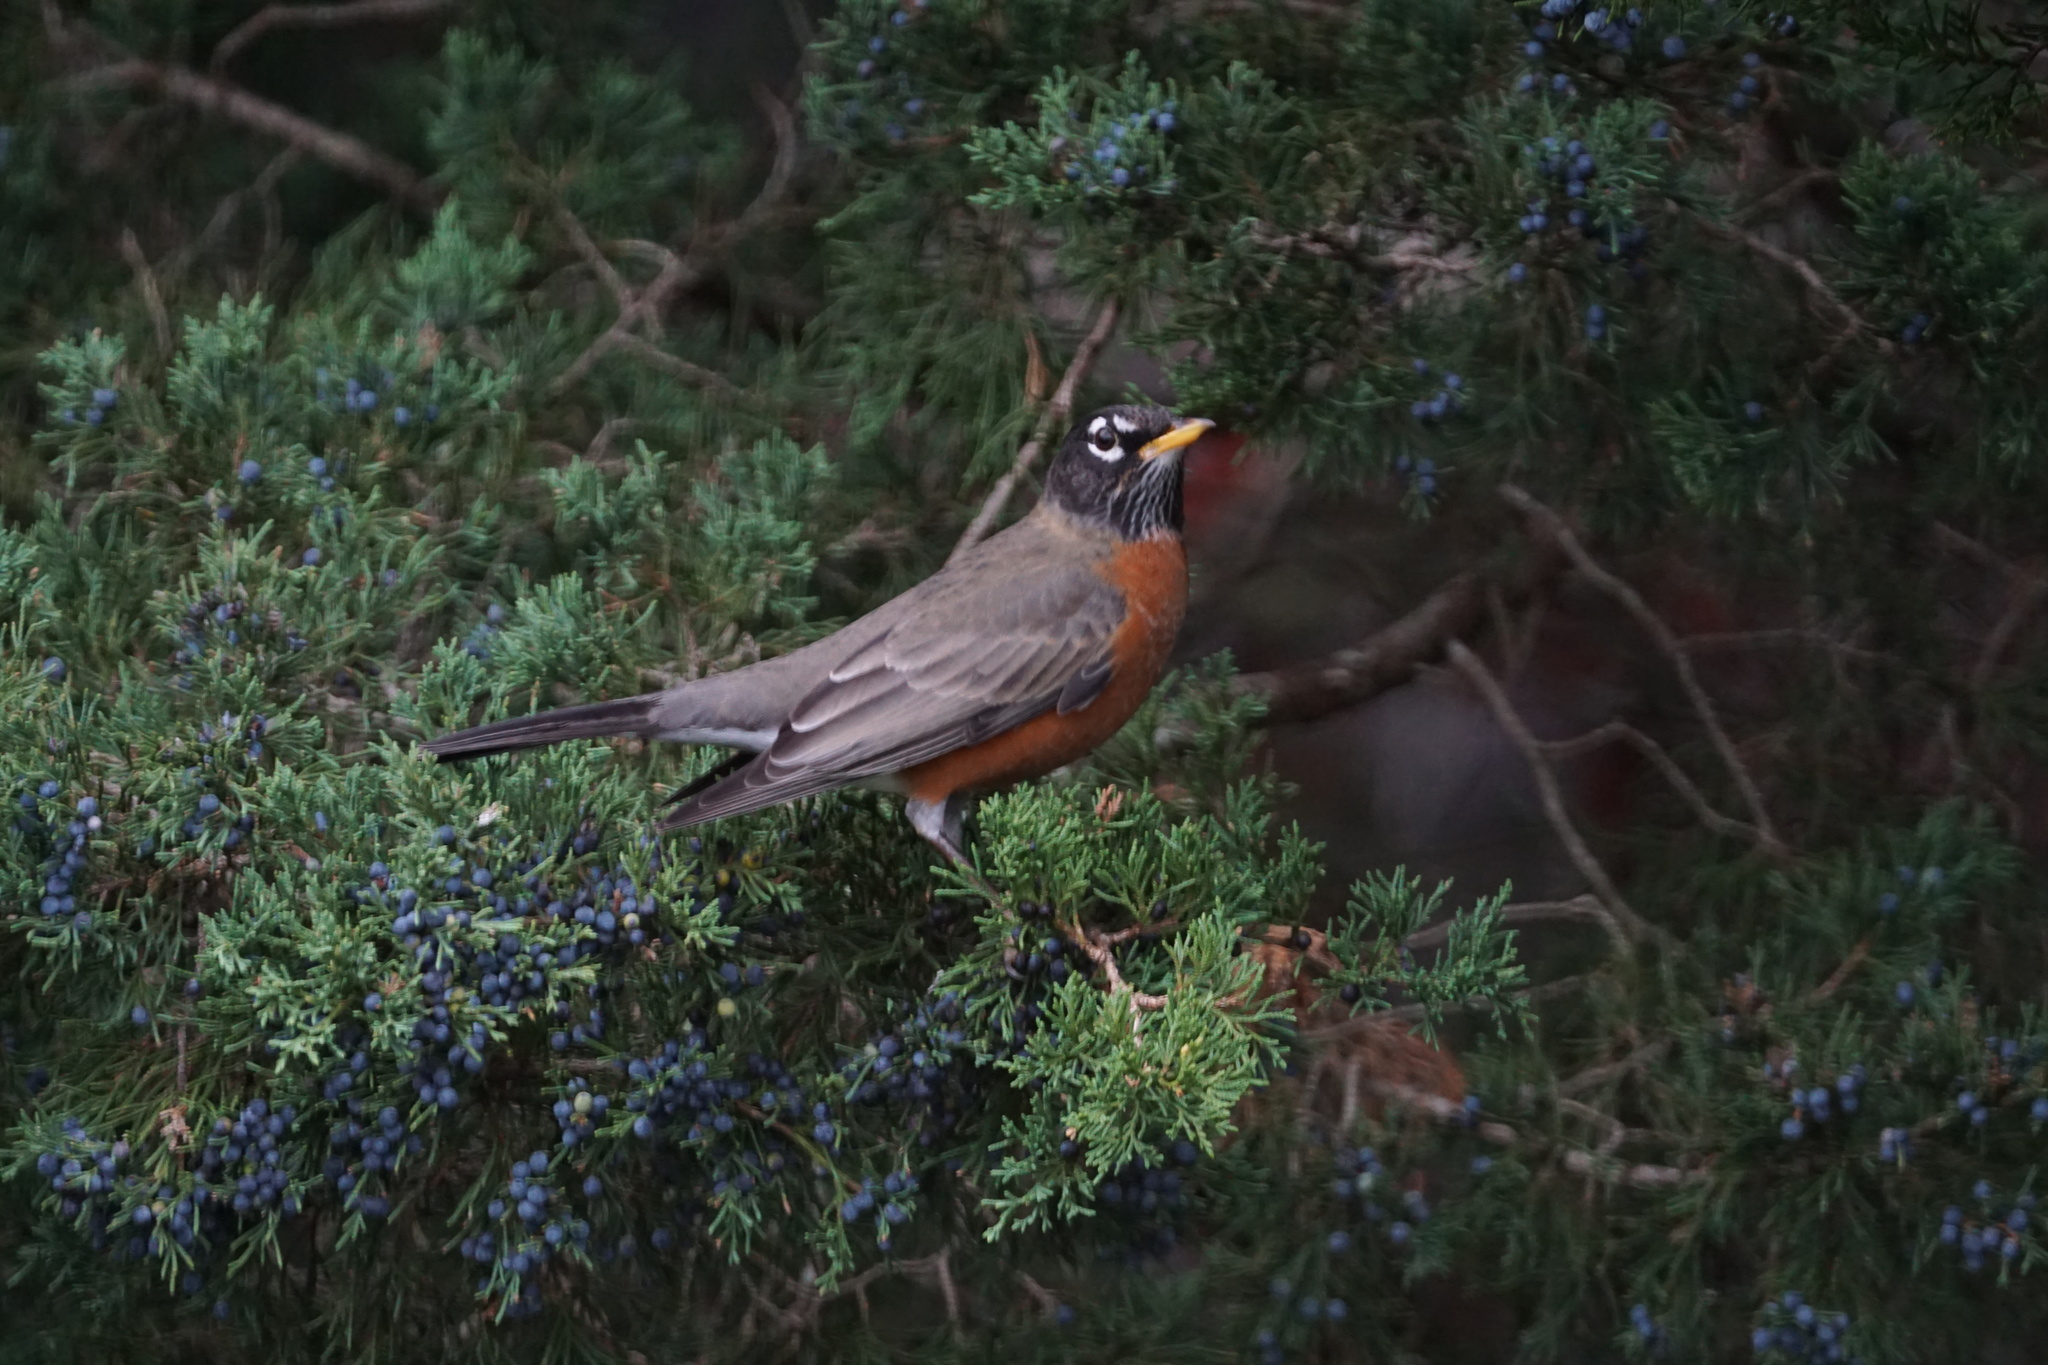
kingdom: Animalia
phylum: Chordata
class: Aves
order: Passeriformes
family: Turdidae
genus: Turdus
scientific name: Turdus migratorius
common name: American robin
